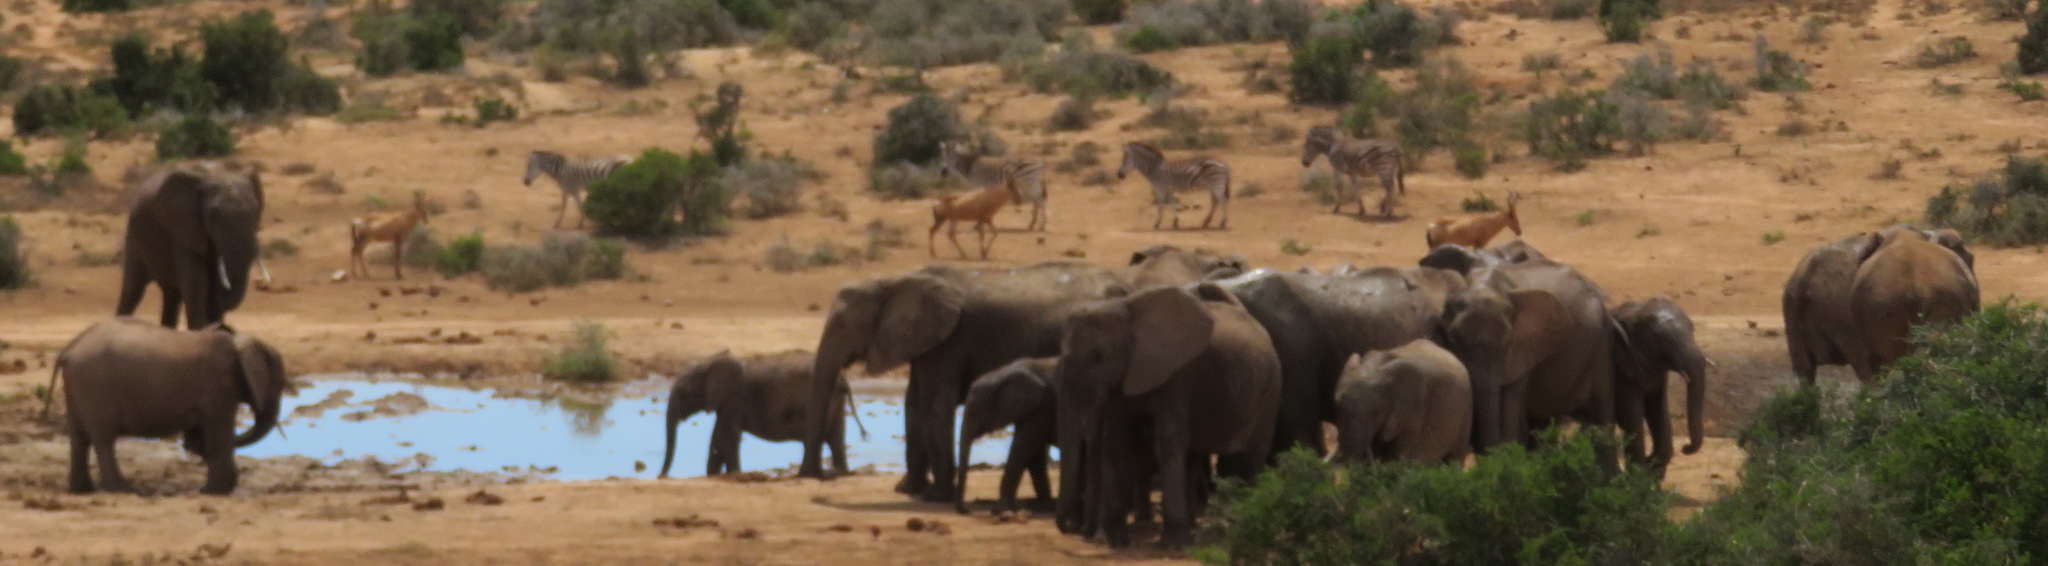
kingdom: Animalia
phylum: Chordata
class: Mammalia
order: Artiodactyla
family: Bovidae
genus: Alcelaphus
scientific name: Alcelaphus caama
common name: Red hartebeest
